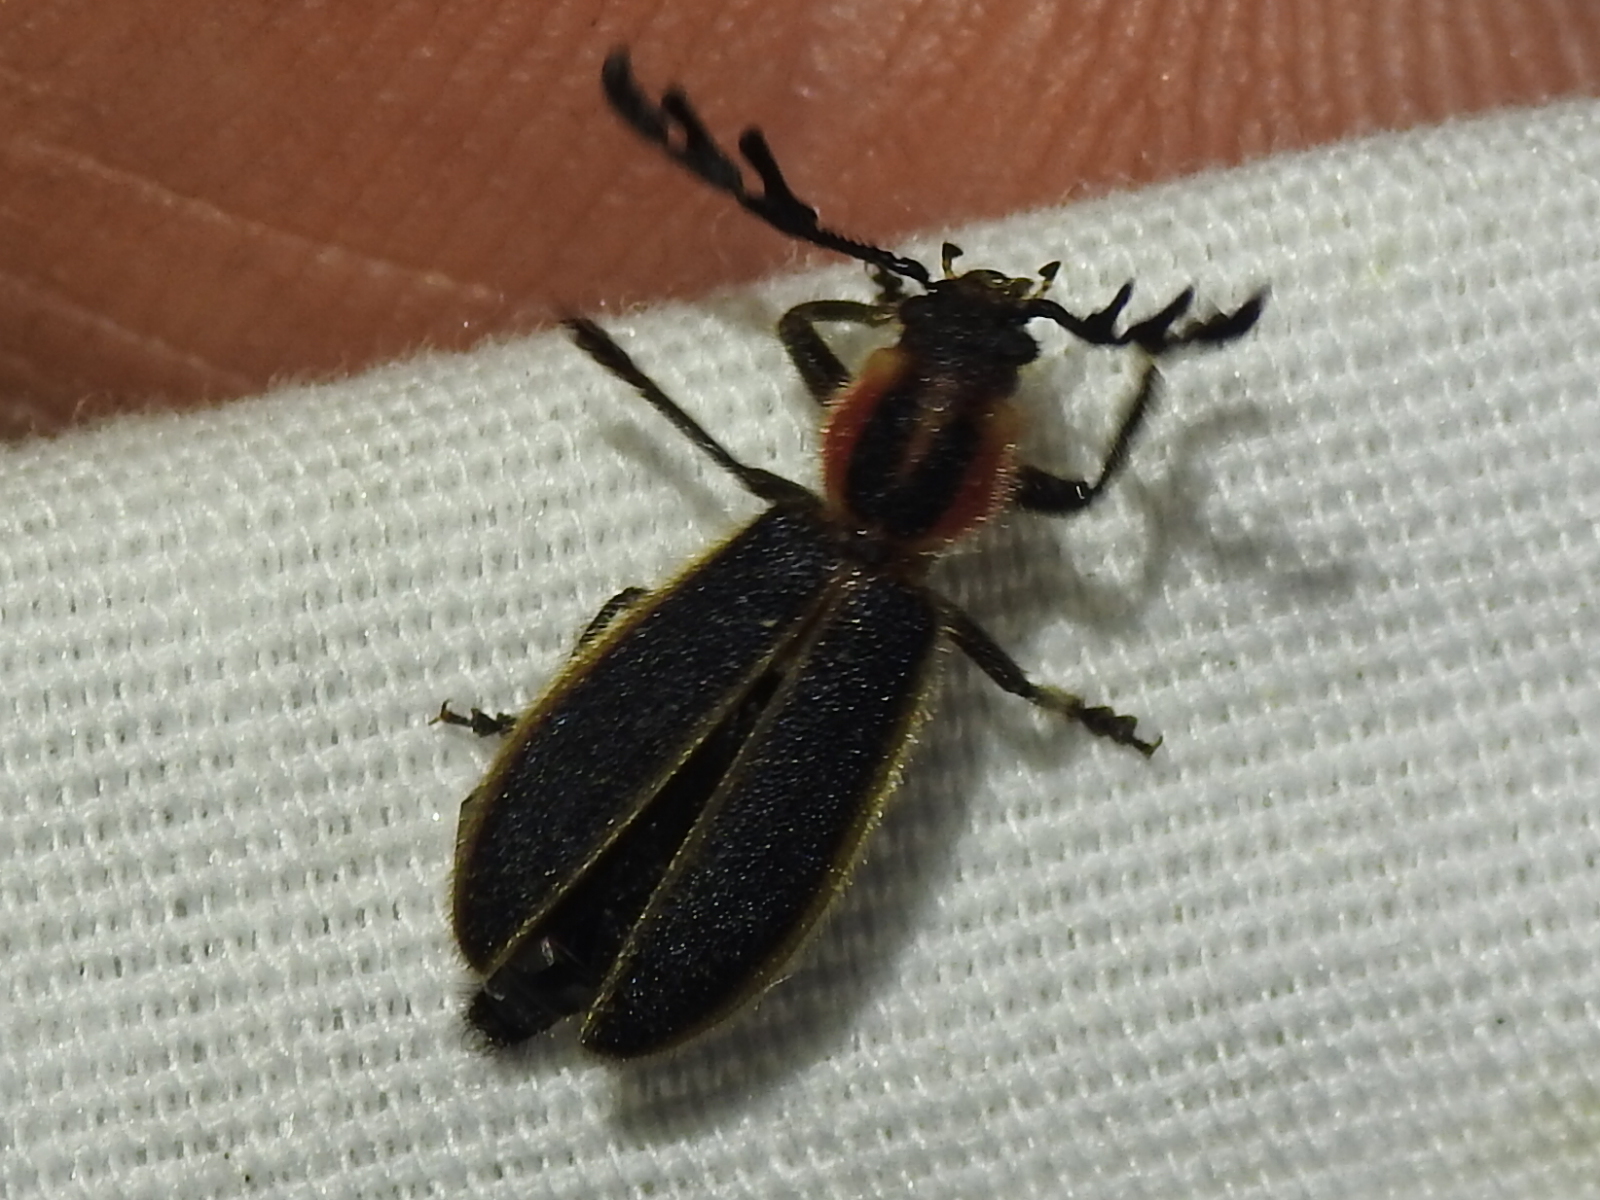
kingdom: Animalia
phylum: Arthropoda
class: Insecta
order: Coleoptera
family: Cleridae
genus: Chariessa
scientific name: Chariessa pilosa
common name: Pilose checkered beetle
